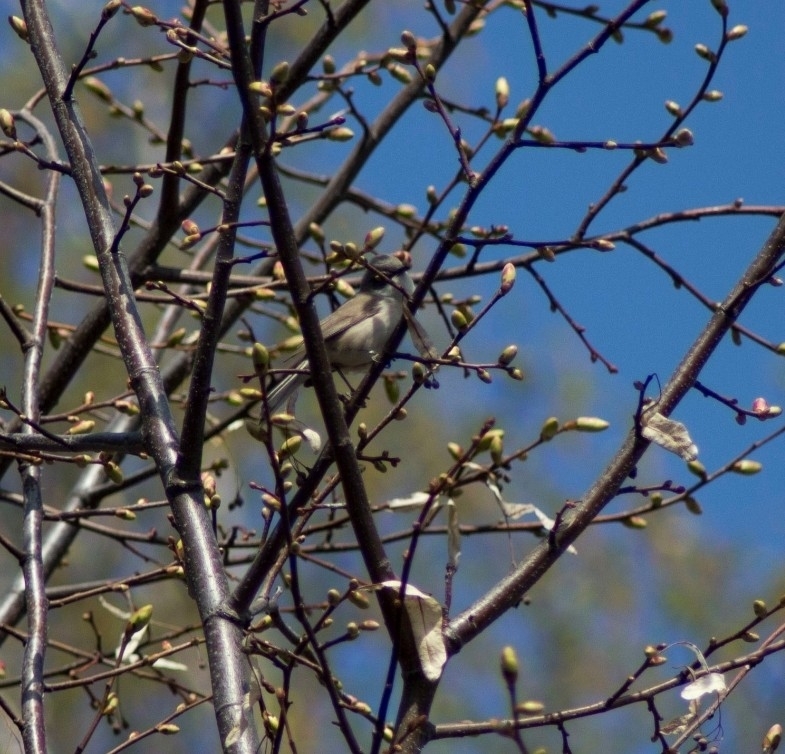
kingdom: Animalia
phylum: Chordata
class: Aves
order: Passeriformes
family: Sylviidae
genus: Sylvia
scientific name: Sylvia curruca
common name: Lesser whitethroat
